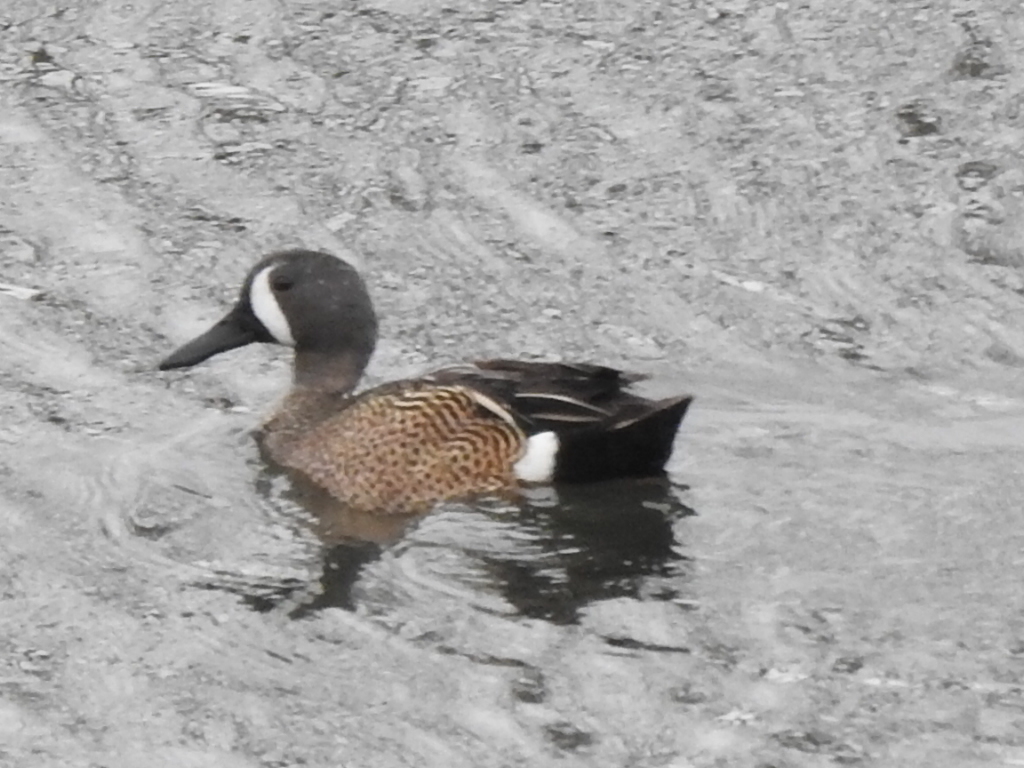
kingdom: Animalia
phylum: Chordata
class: Aves
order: Anseriformes
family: Anatidae
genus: Spatula
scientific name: Spatula discors
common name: Blue-winged teal
